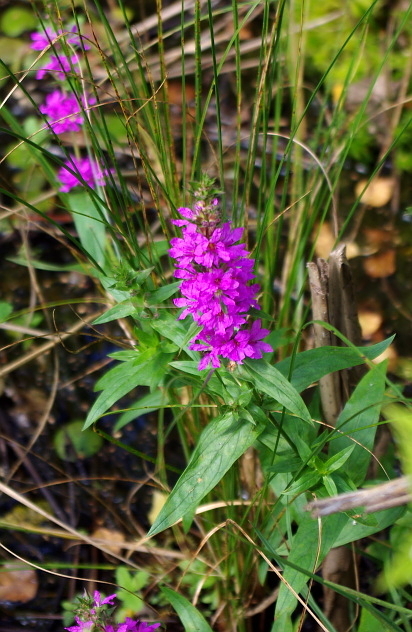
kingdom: Plantae
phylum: Tracheophyta
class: Magnoliopsida
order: Myrtales
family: Lythraceae
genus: Lythrum
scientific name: Lythrum salicaria
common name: Purple loosestrife
